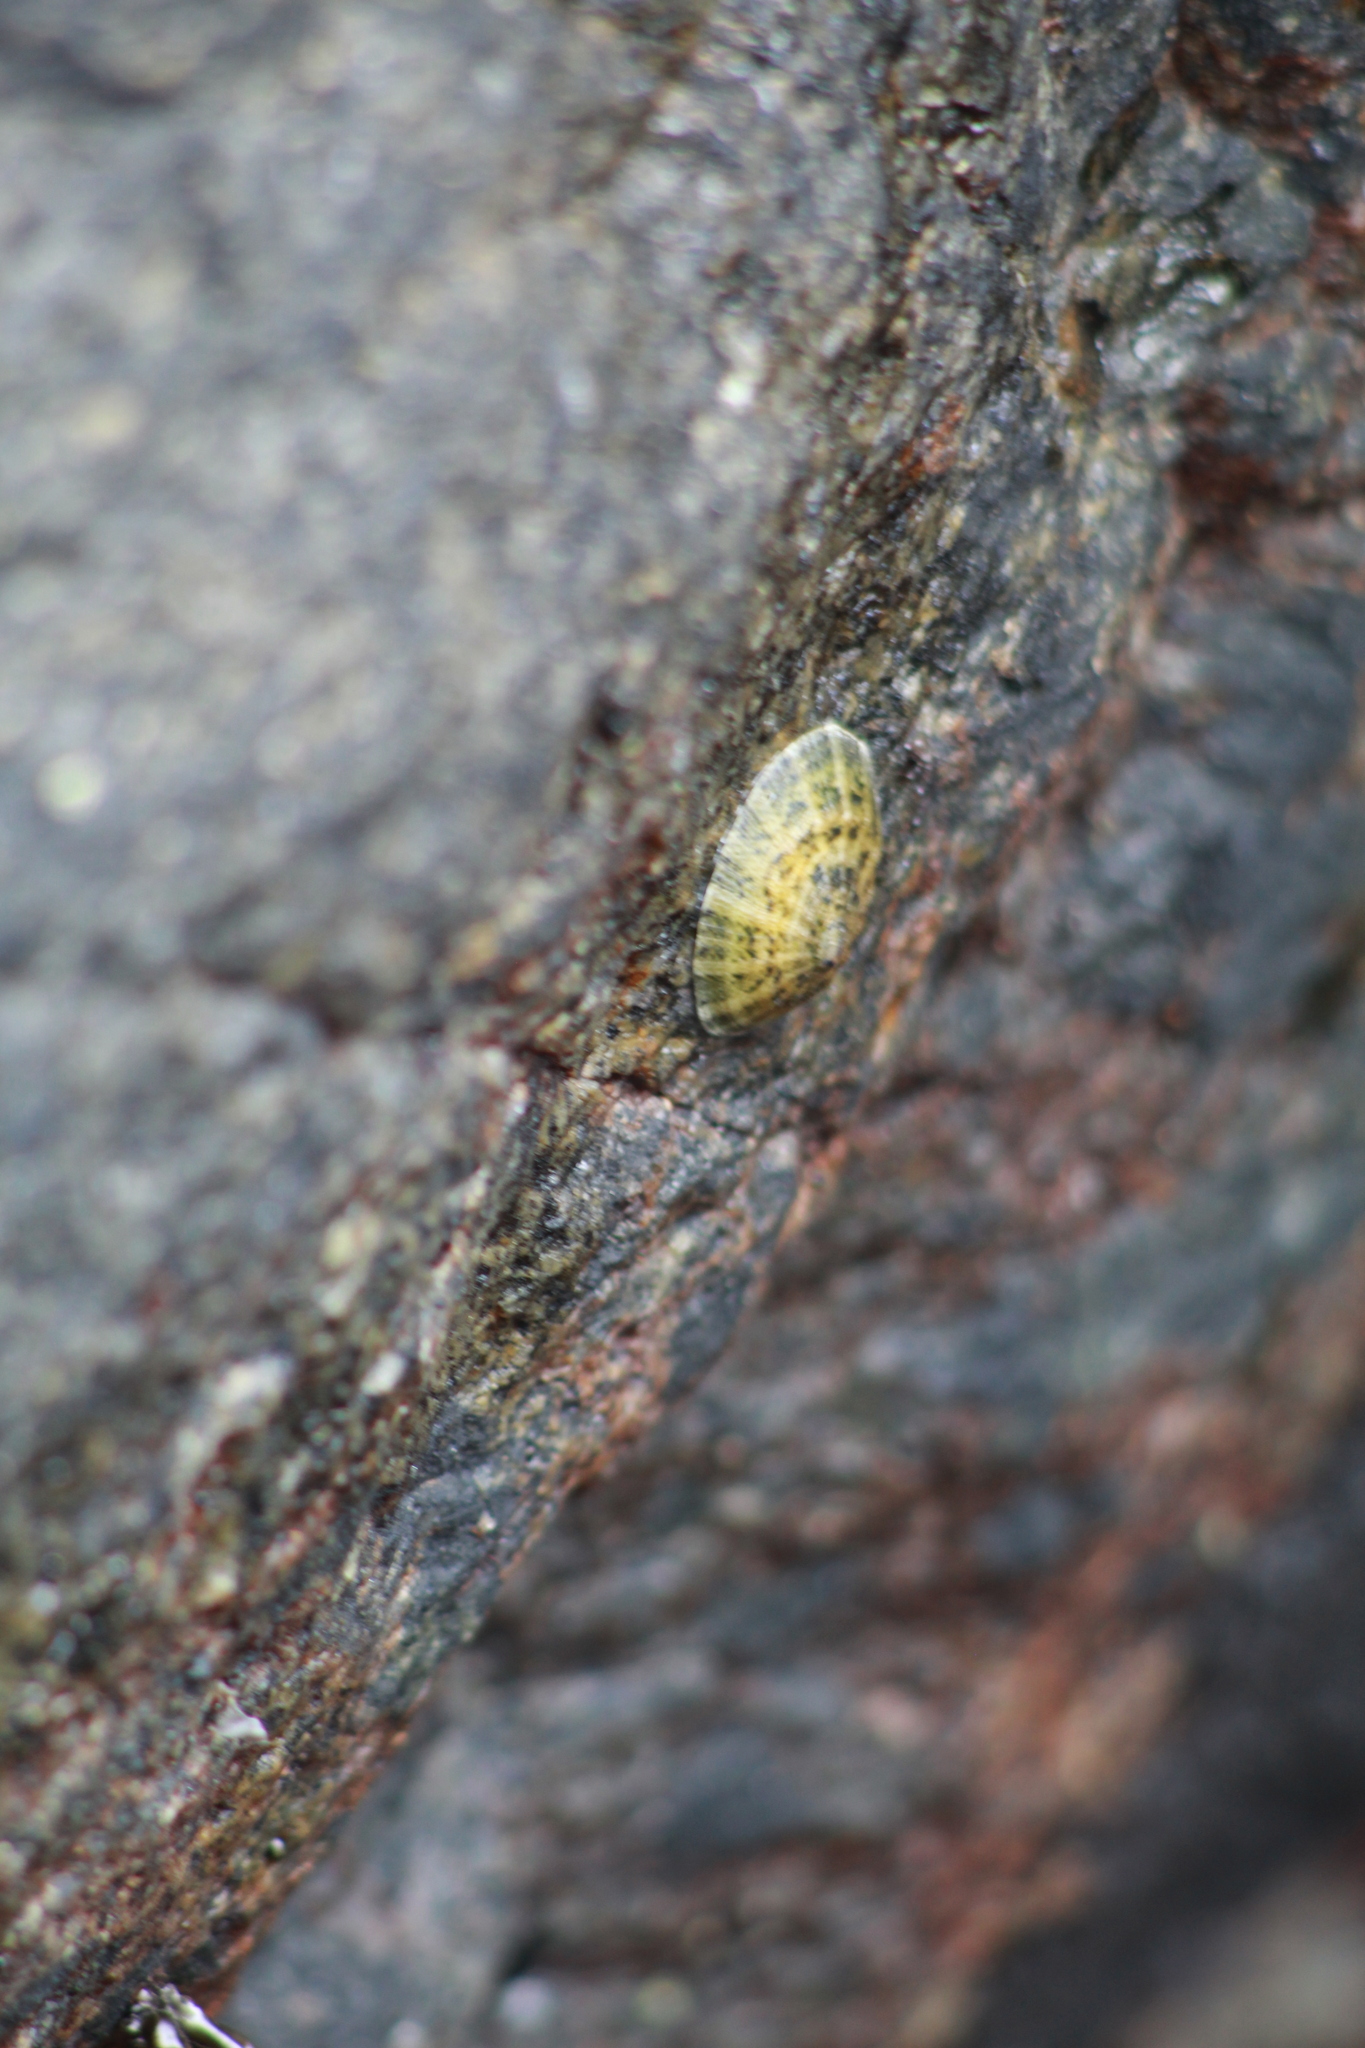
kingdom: Animalia
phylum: Mollusca
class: Gastropoda
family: Lottiidae
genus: Scurria
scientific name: Scurria viridula
